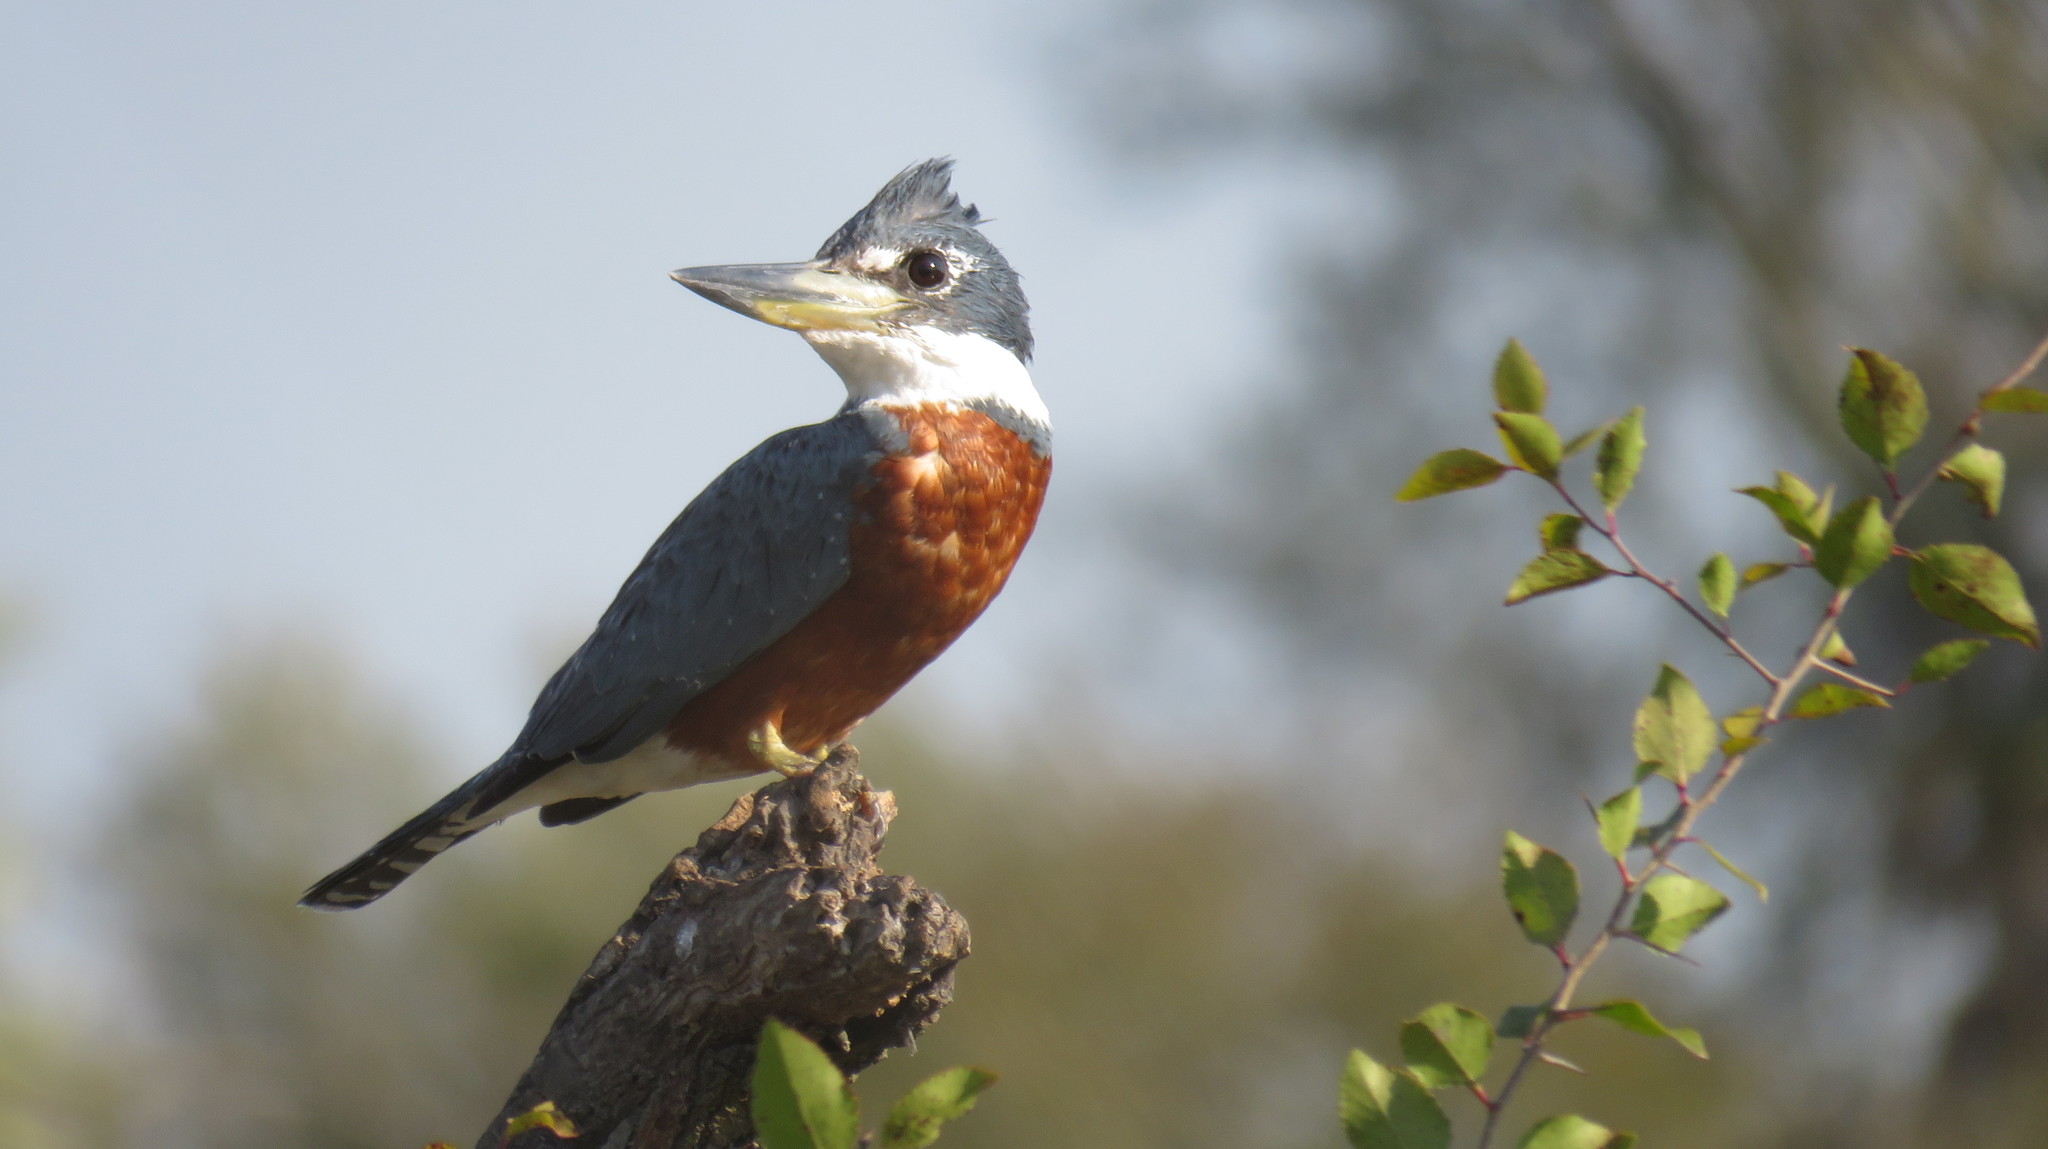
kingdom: Animalia
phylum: Chordata
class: Aves
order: Coraciiformes
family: Alcedinidae
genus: Megaceryle
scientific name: Megaceryle torquata
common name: Ringed kingfisher
